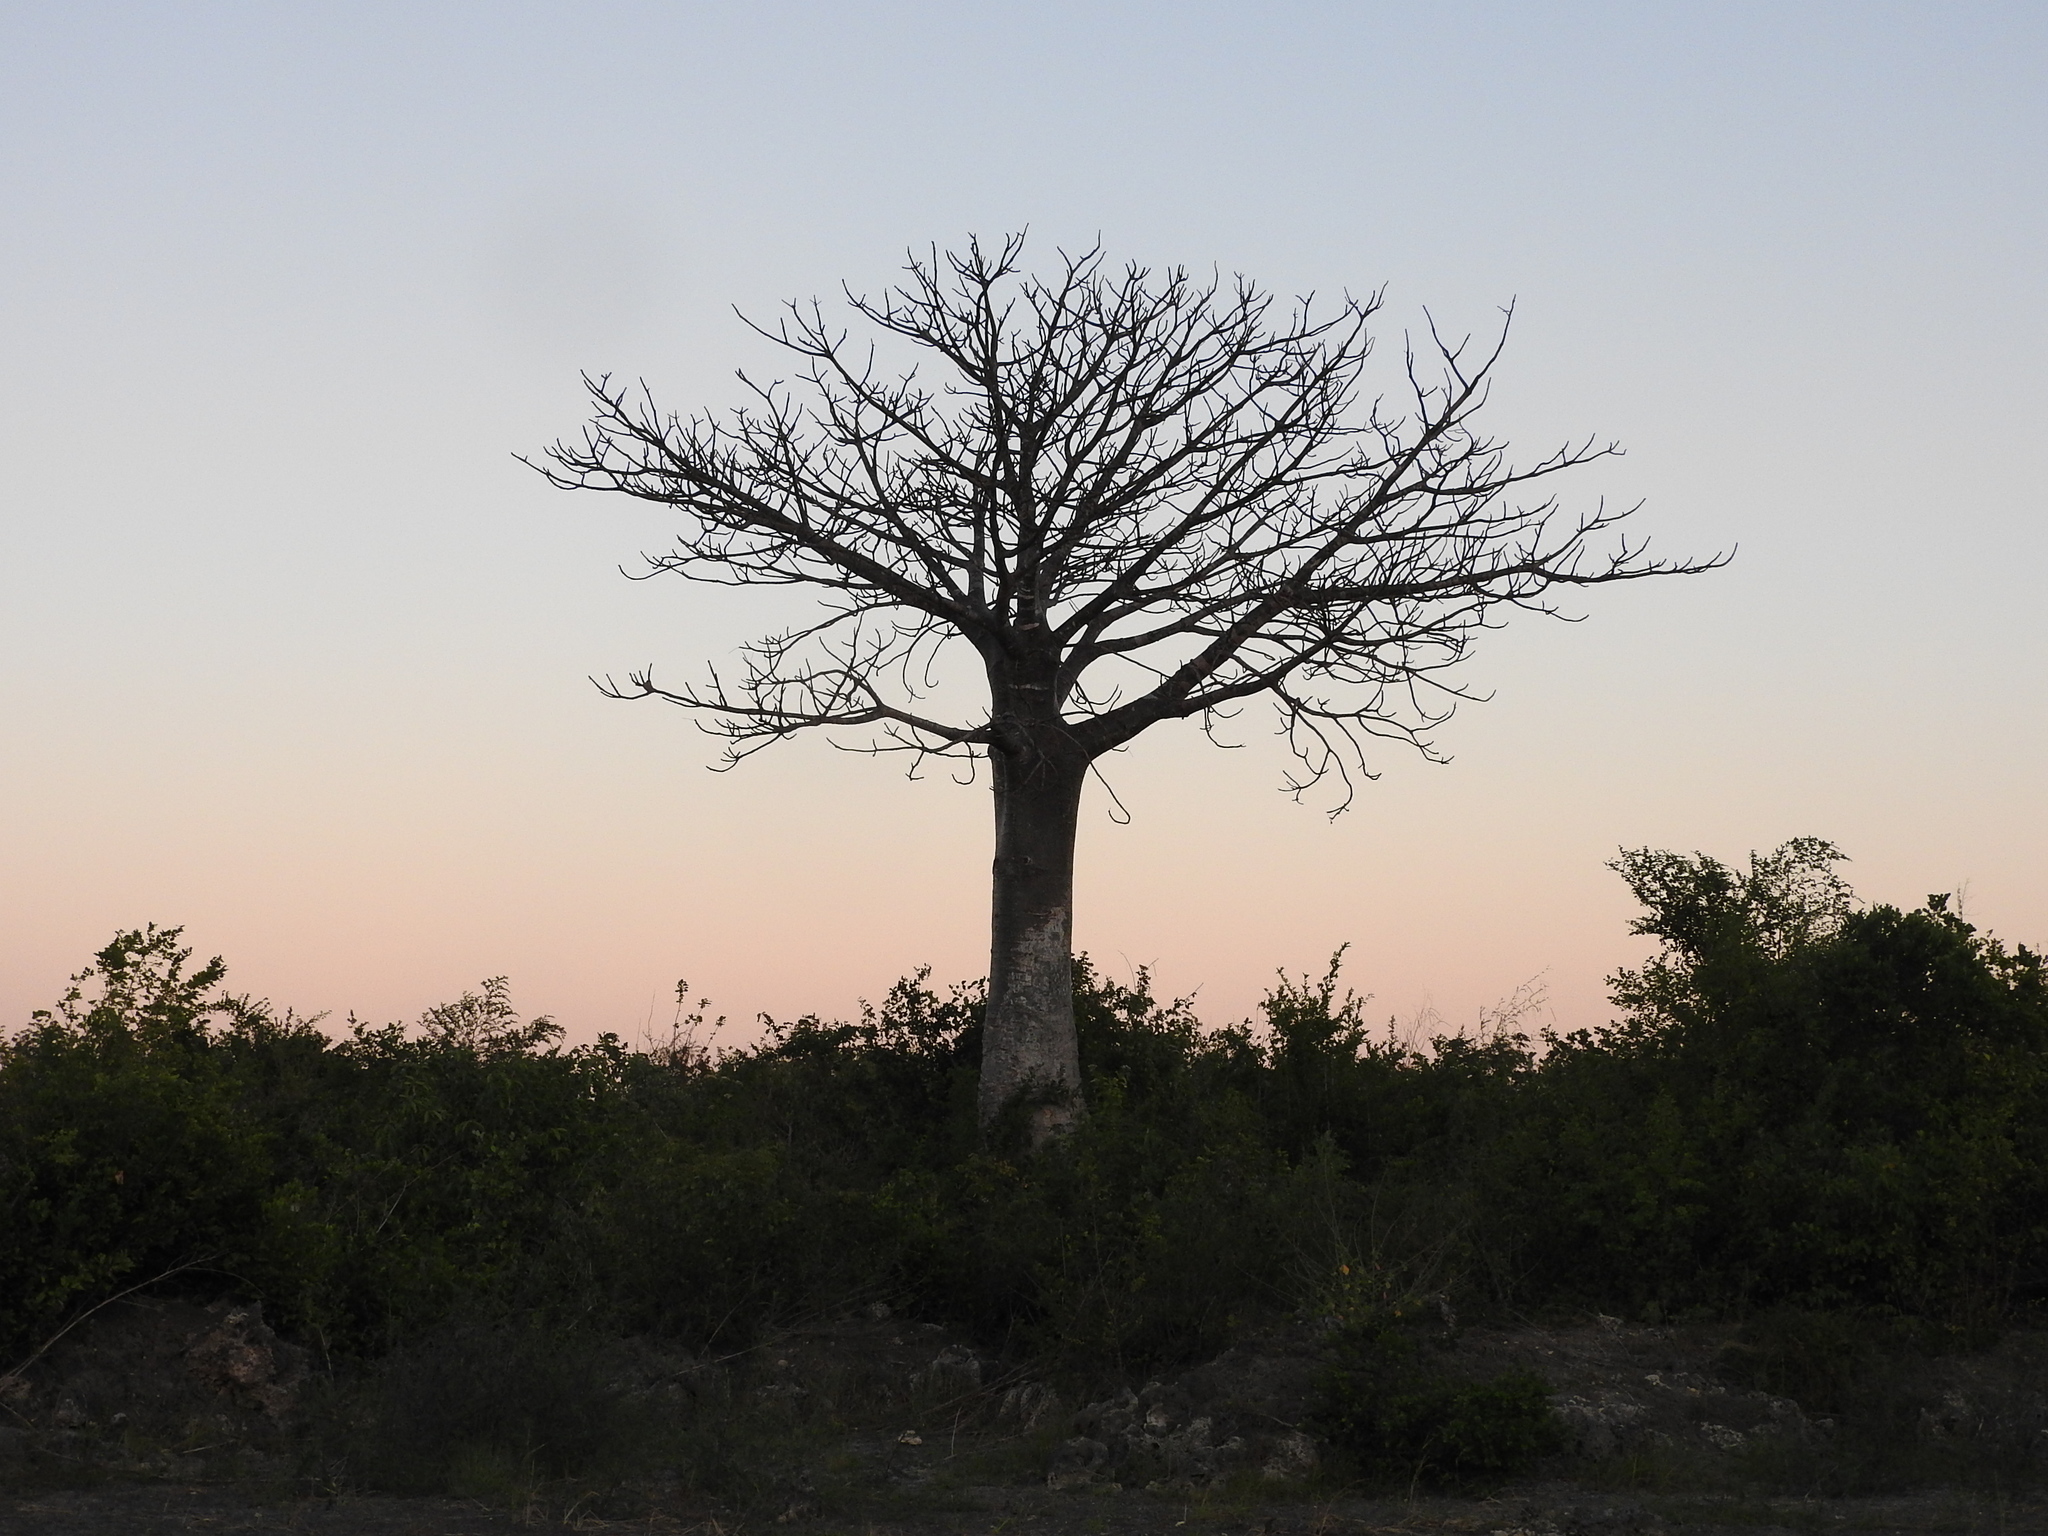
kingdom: Plantae
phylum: Tracheophyta
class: Magnoliopsida
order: Malvales
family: Malvaceae
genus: Adansonia
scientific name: Adansonia digitata
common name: Dead-rat-tree
